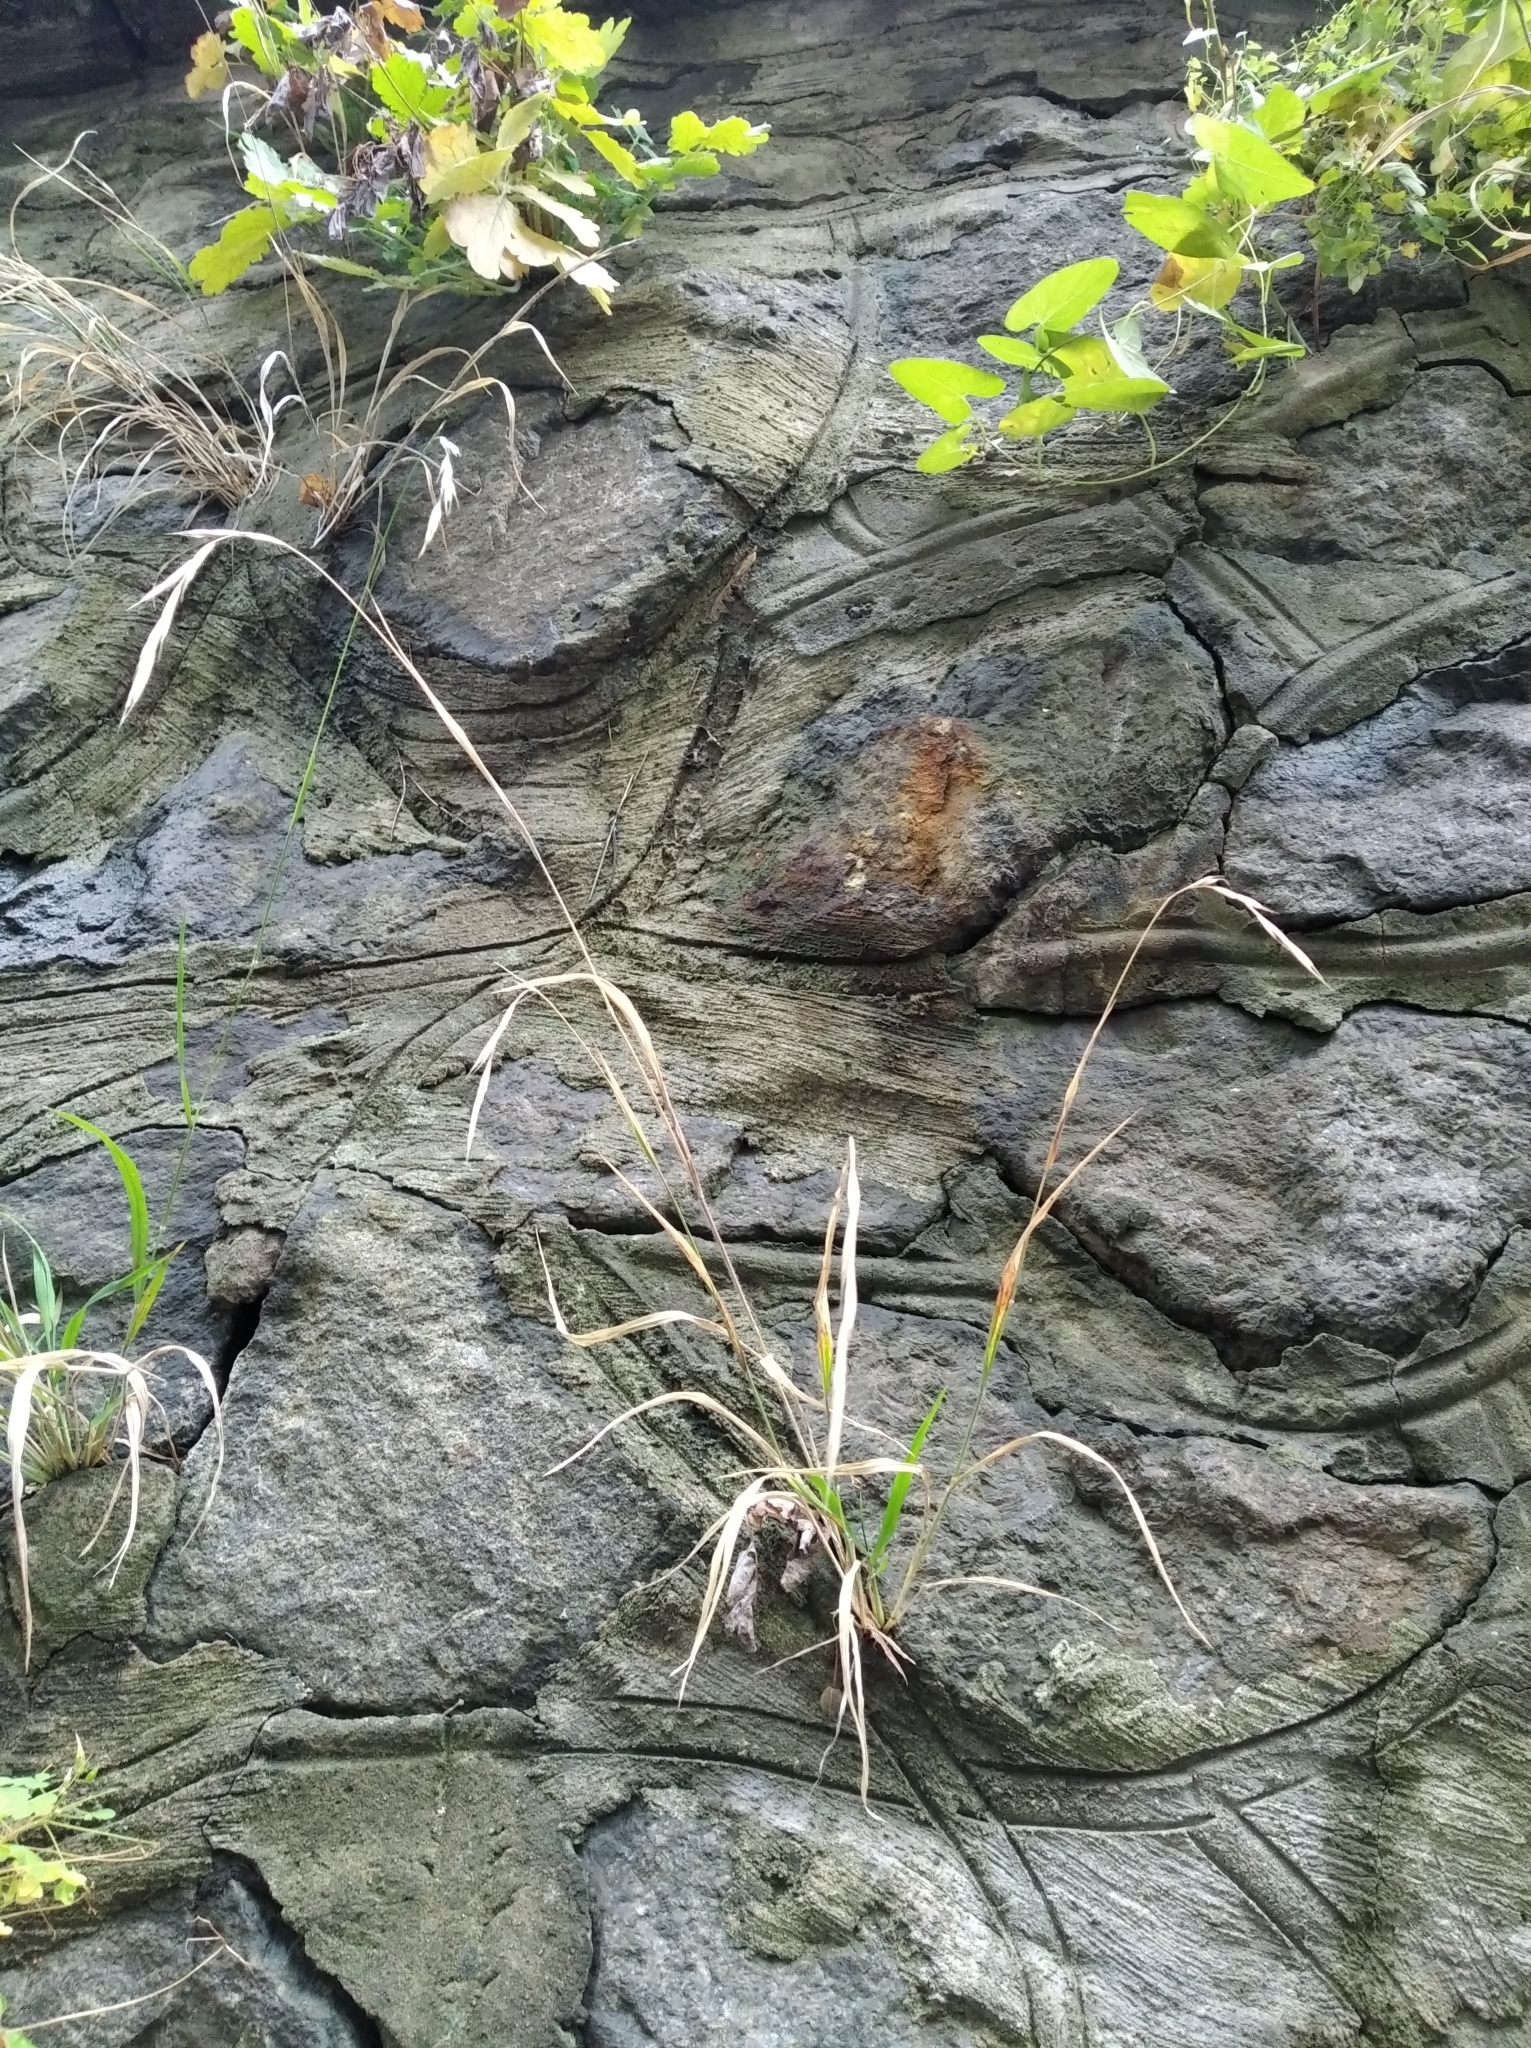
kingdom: Plantae
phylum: Tracheophyta
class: Liliopsida
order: Poales
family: Poaceae
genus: Brachypodium
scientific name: Brachypodium sylvaticum
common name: False-brome
